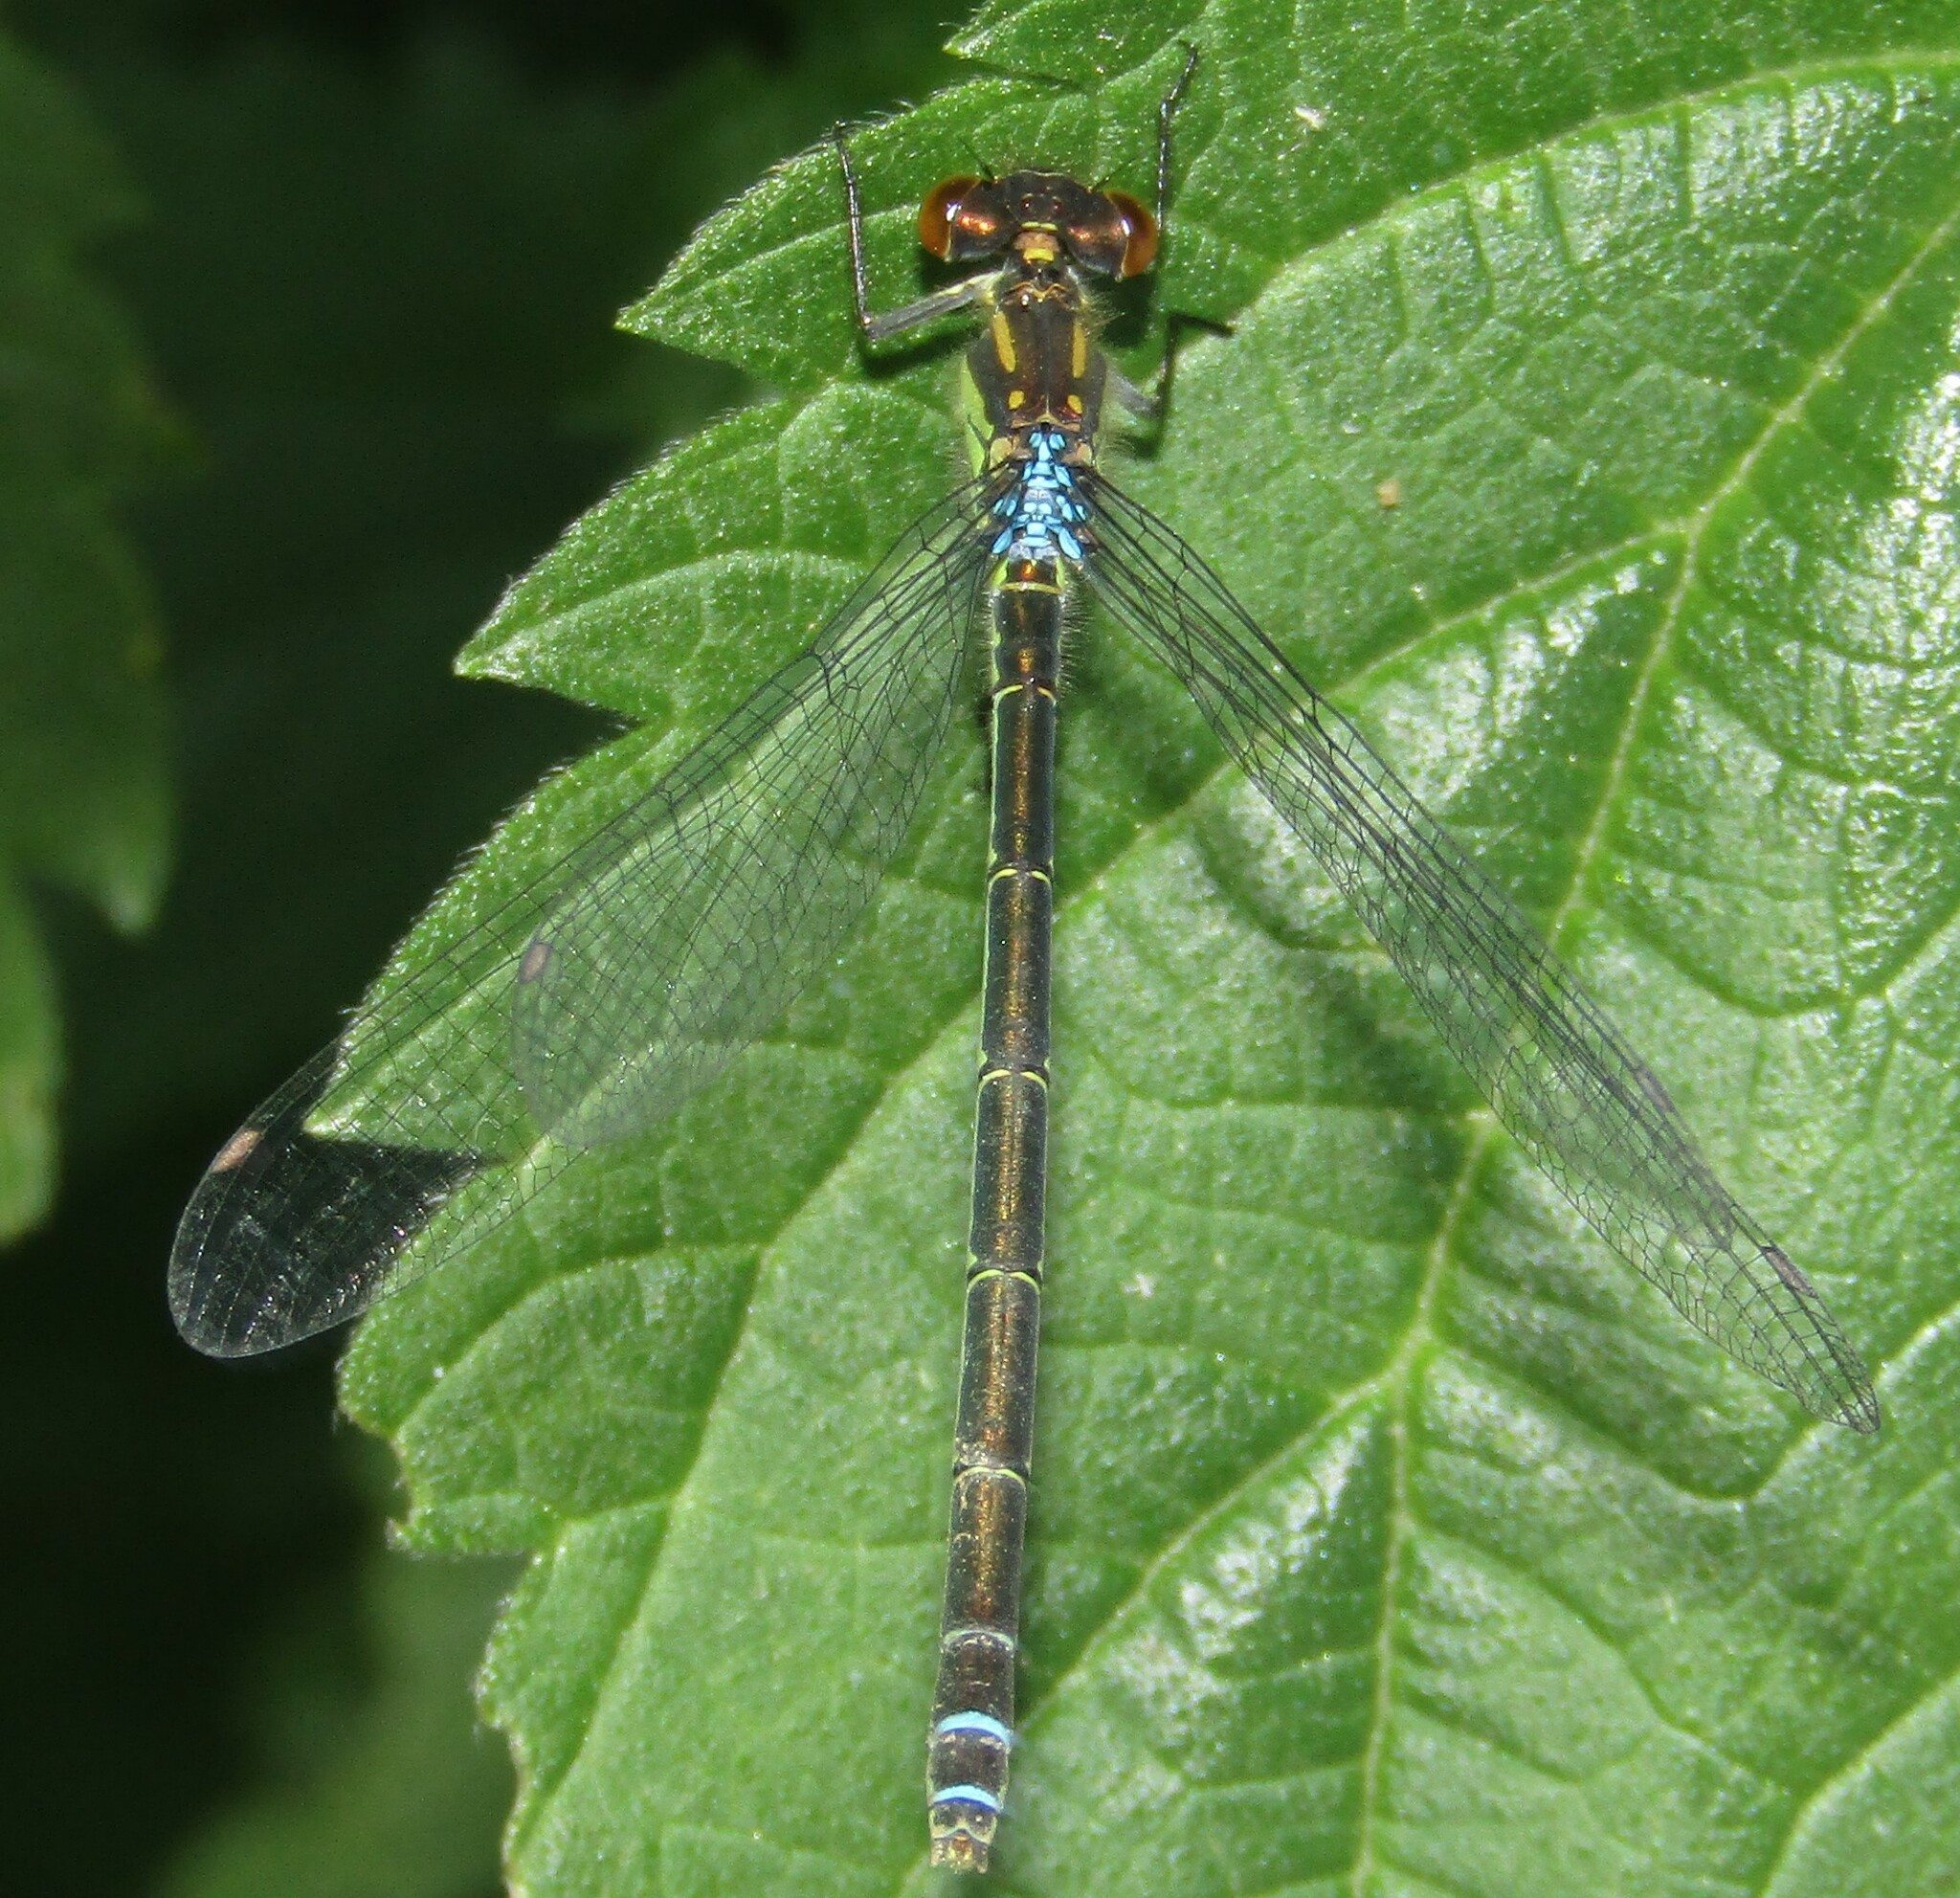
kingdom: Animalia
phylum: Arthropoda
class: Insecta
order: Odonata
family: Coenagrionidae
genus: Erythromma
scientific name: Erythromma najas
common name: Red-eyed damselfly
